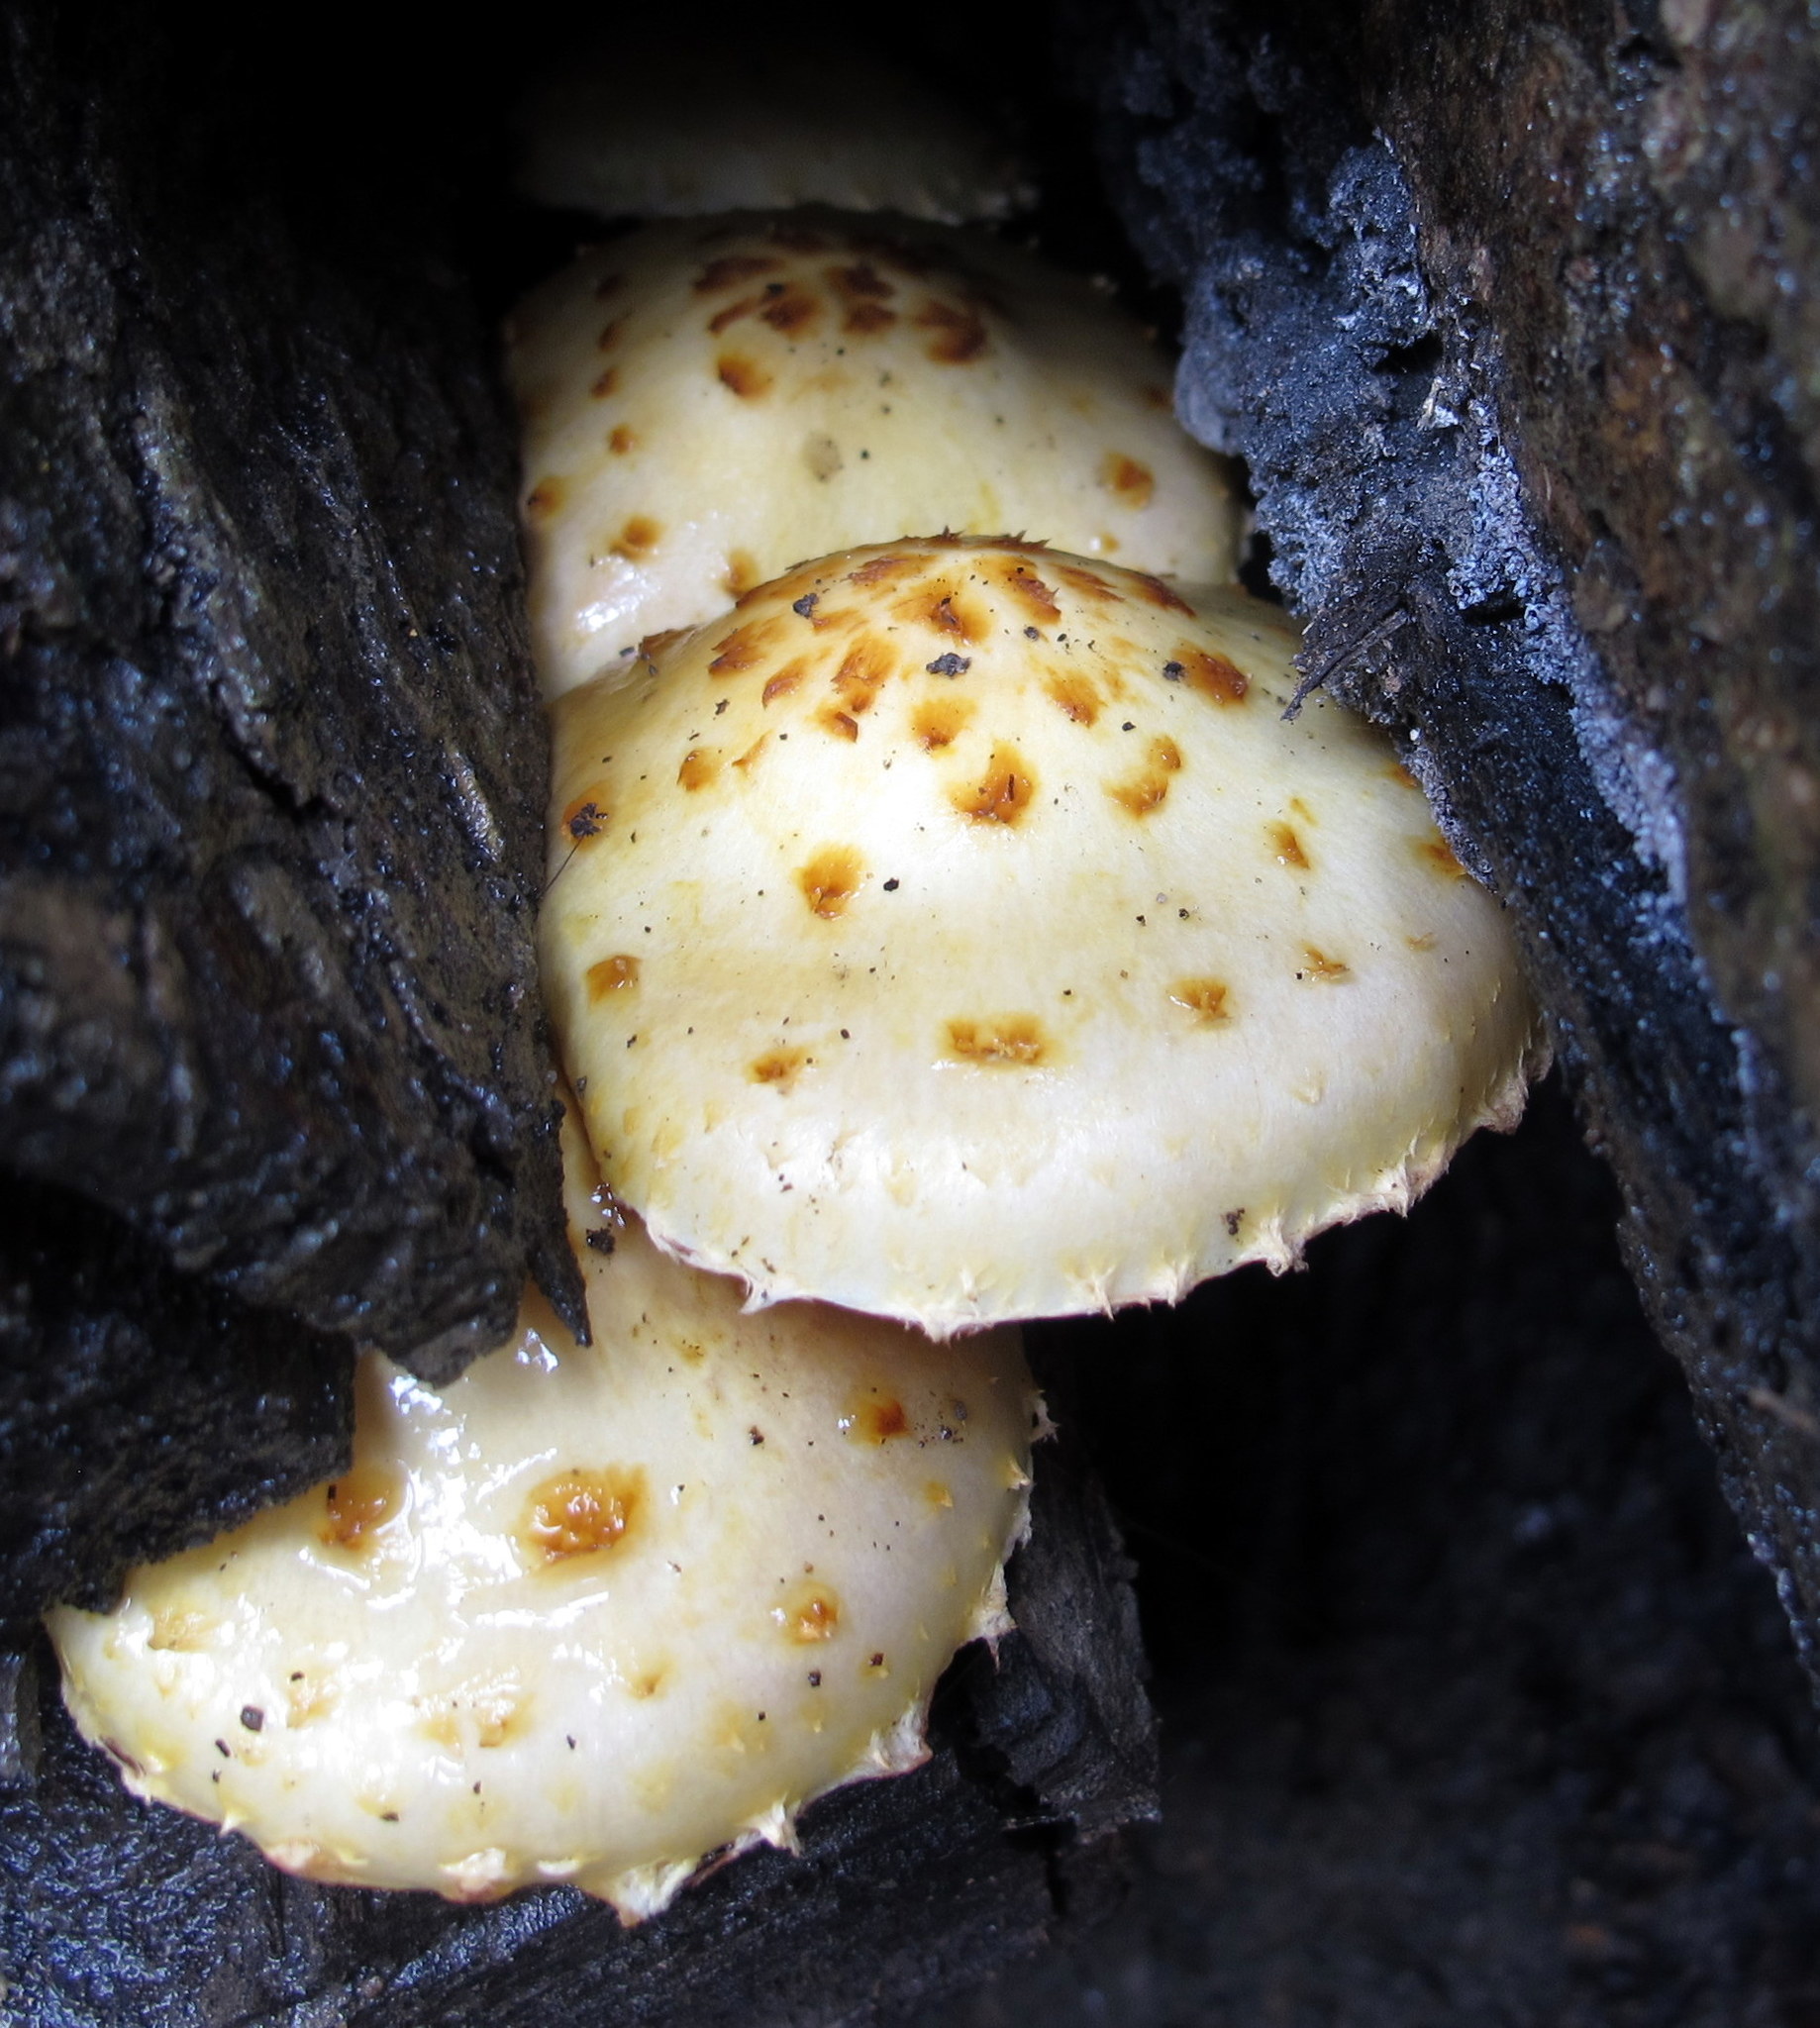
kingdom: Fungi
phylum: Basidiomycota
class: Agaricomycetes
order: Agaricales
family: Strophariaceae
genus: Pholiota
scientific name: Pholiota aurivella
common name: Golden scalycap
